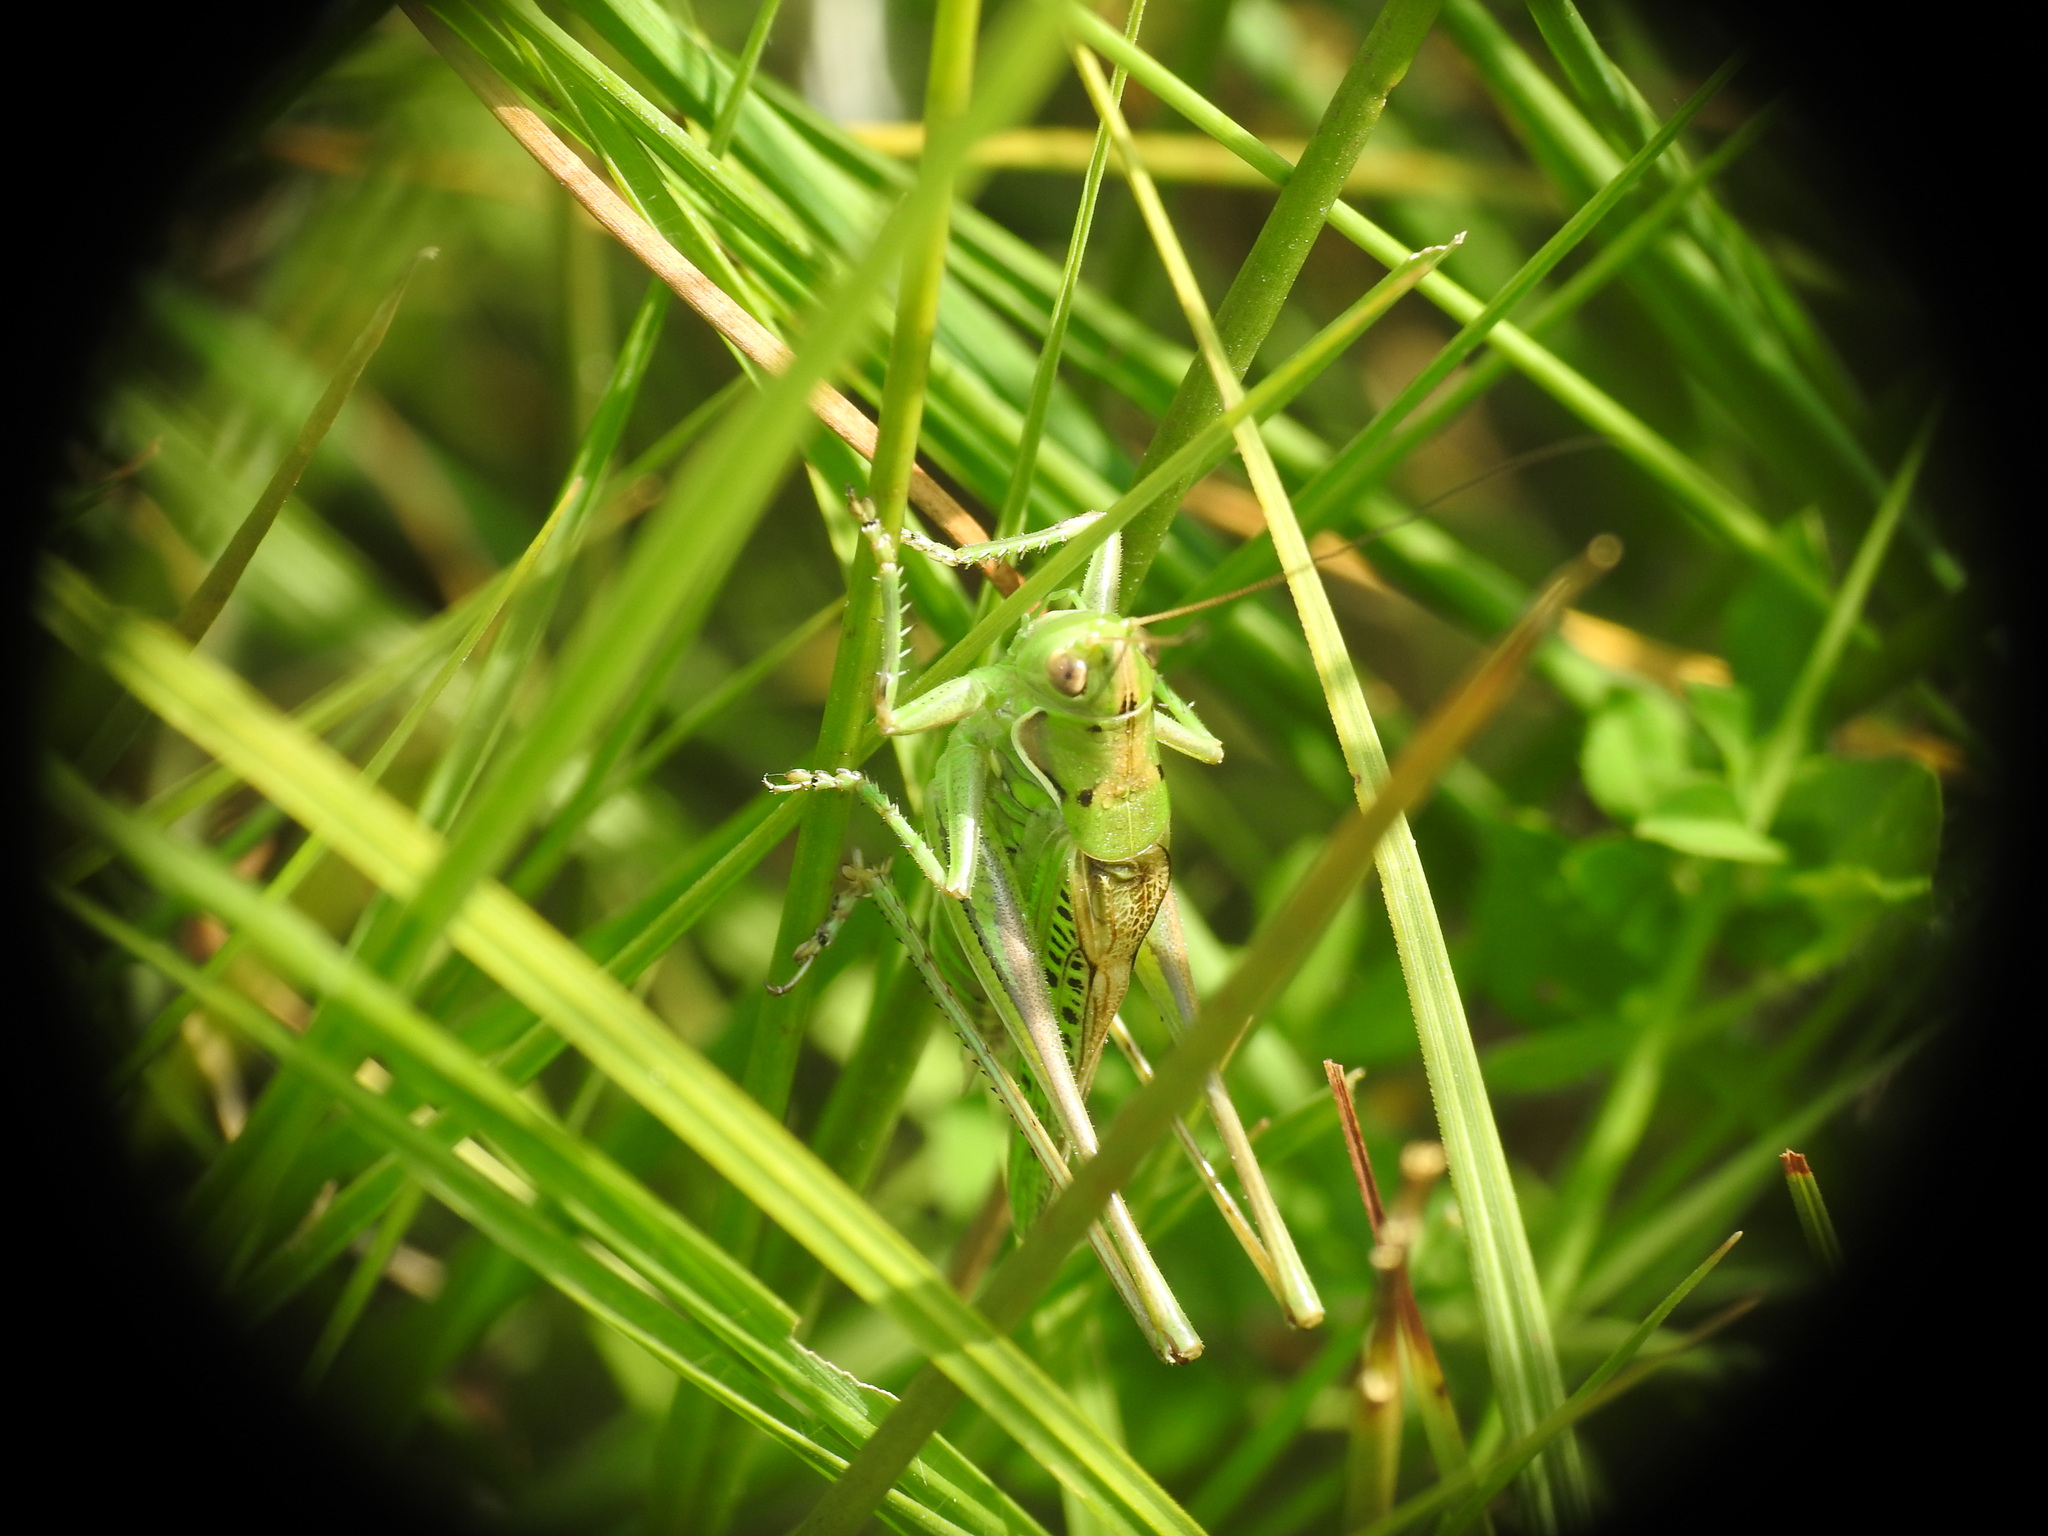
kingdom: Animalia
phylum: Arthropoda
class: Insecta
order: Orthoptera
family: Tettigoniidae
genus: Gampsocleis
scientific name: Gampsocleis glabra
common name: Heath bushcricket
